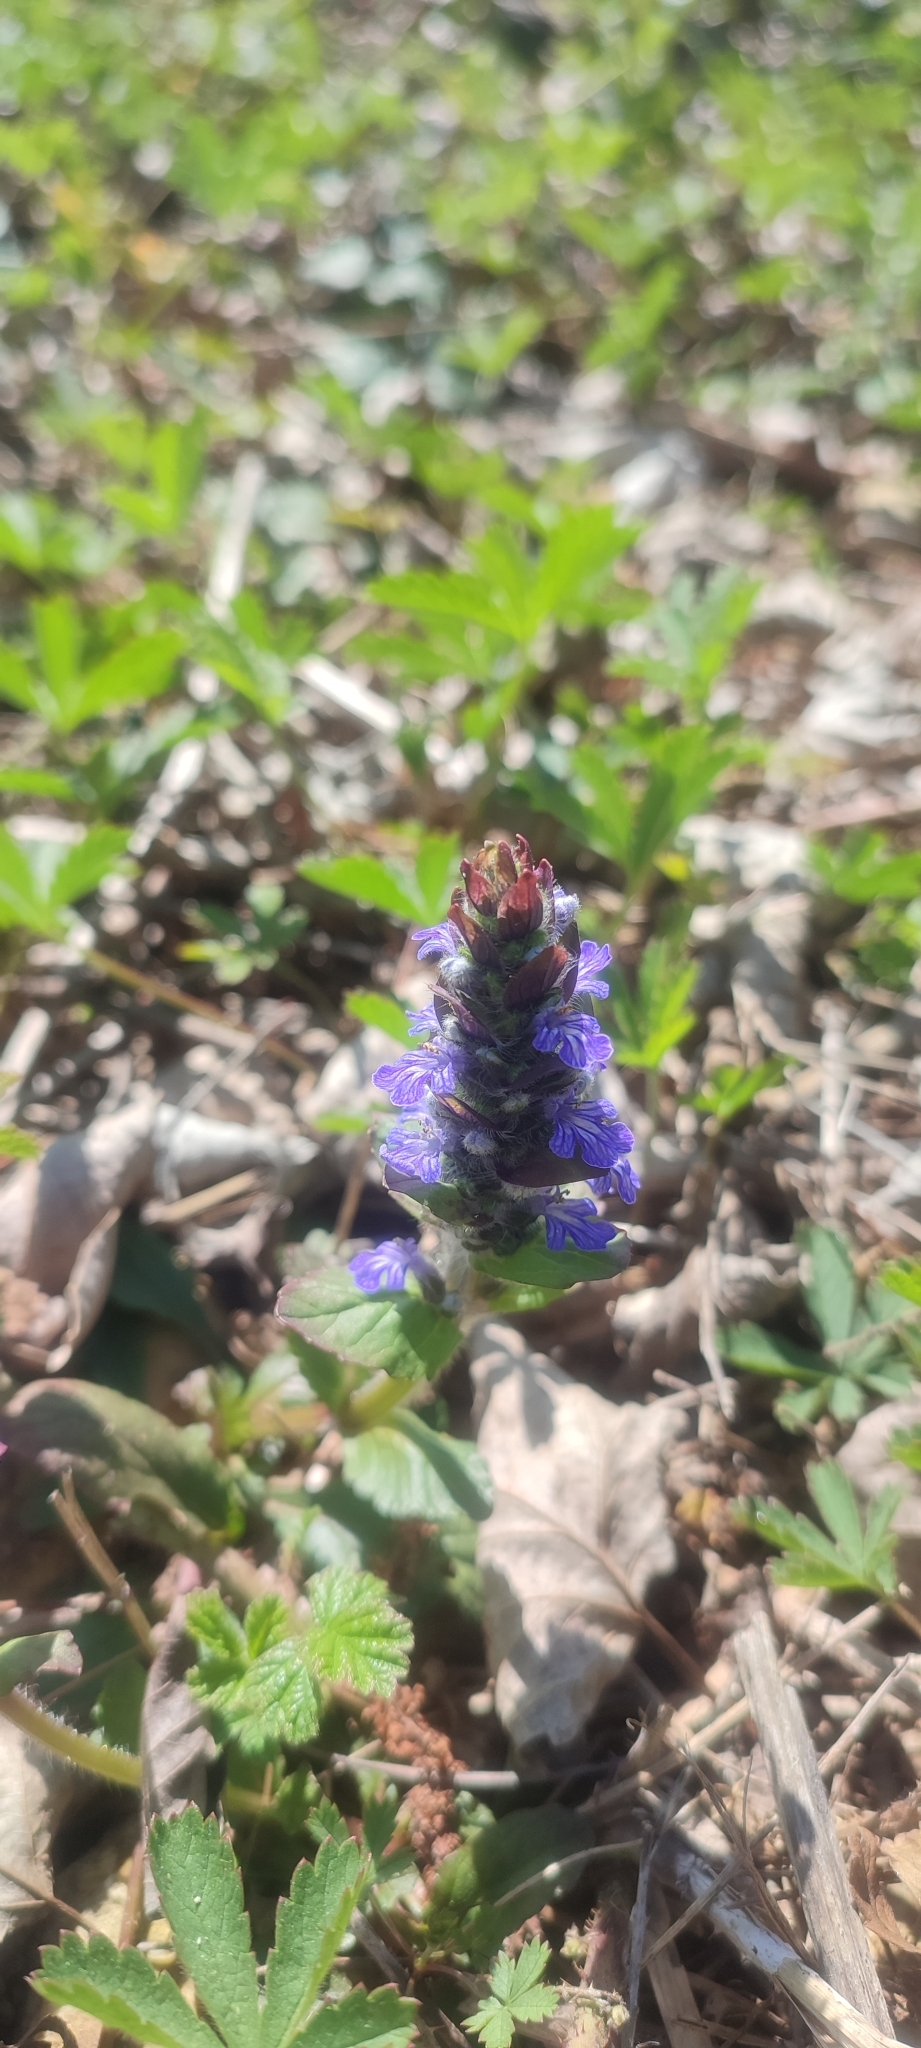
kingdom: Plantae
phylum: Tracheophyta
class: Magnoliopsida
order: Lamiales
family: Lamiaceae
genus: Ajuga
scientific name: Ajuga reptans
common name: Bugle
